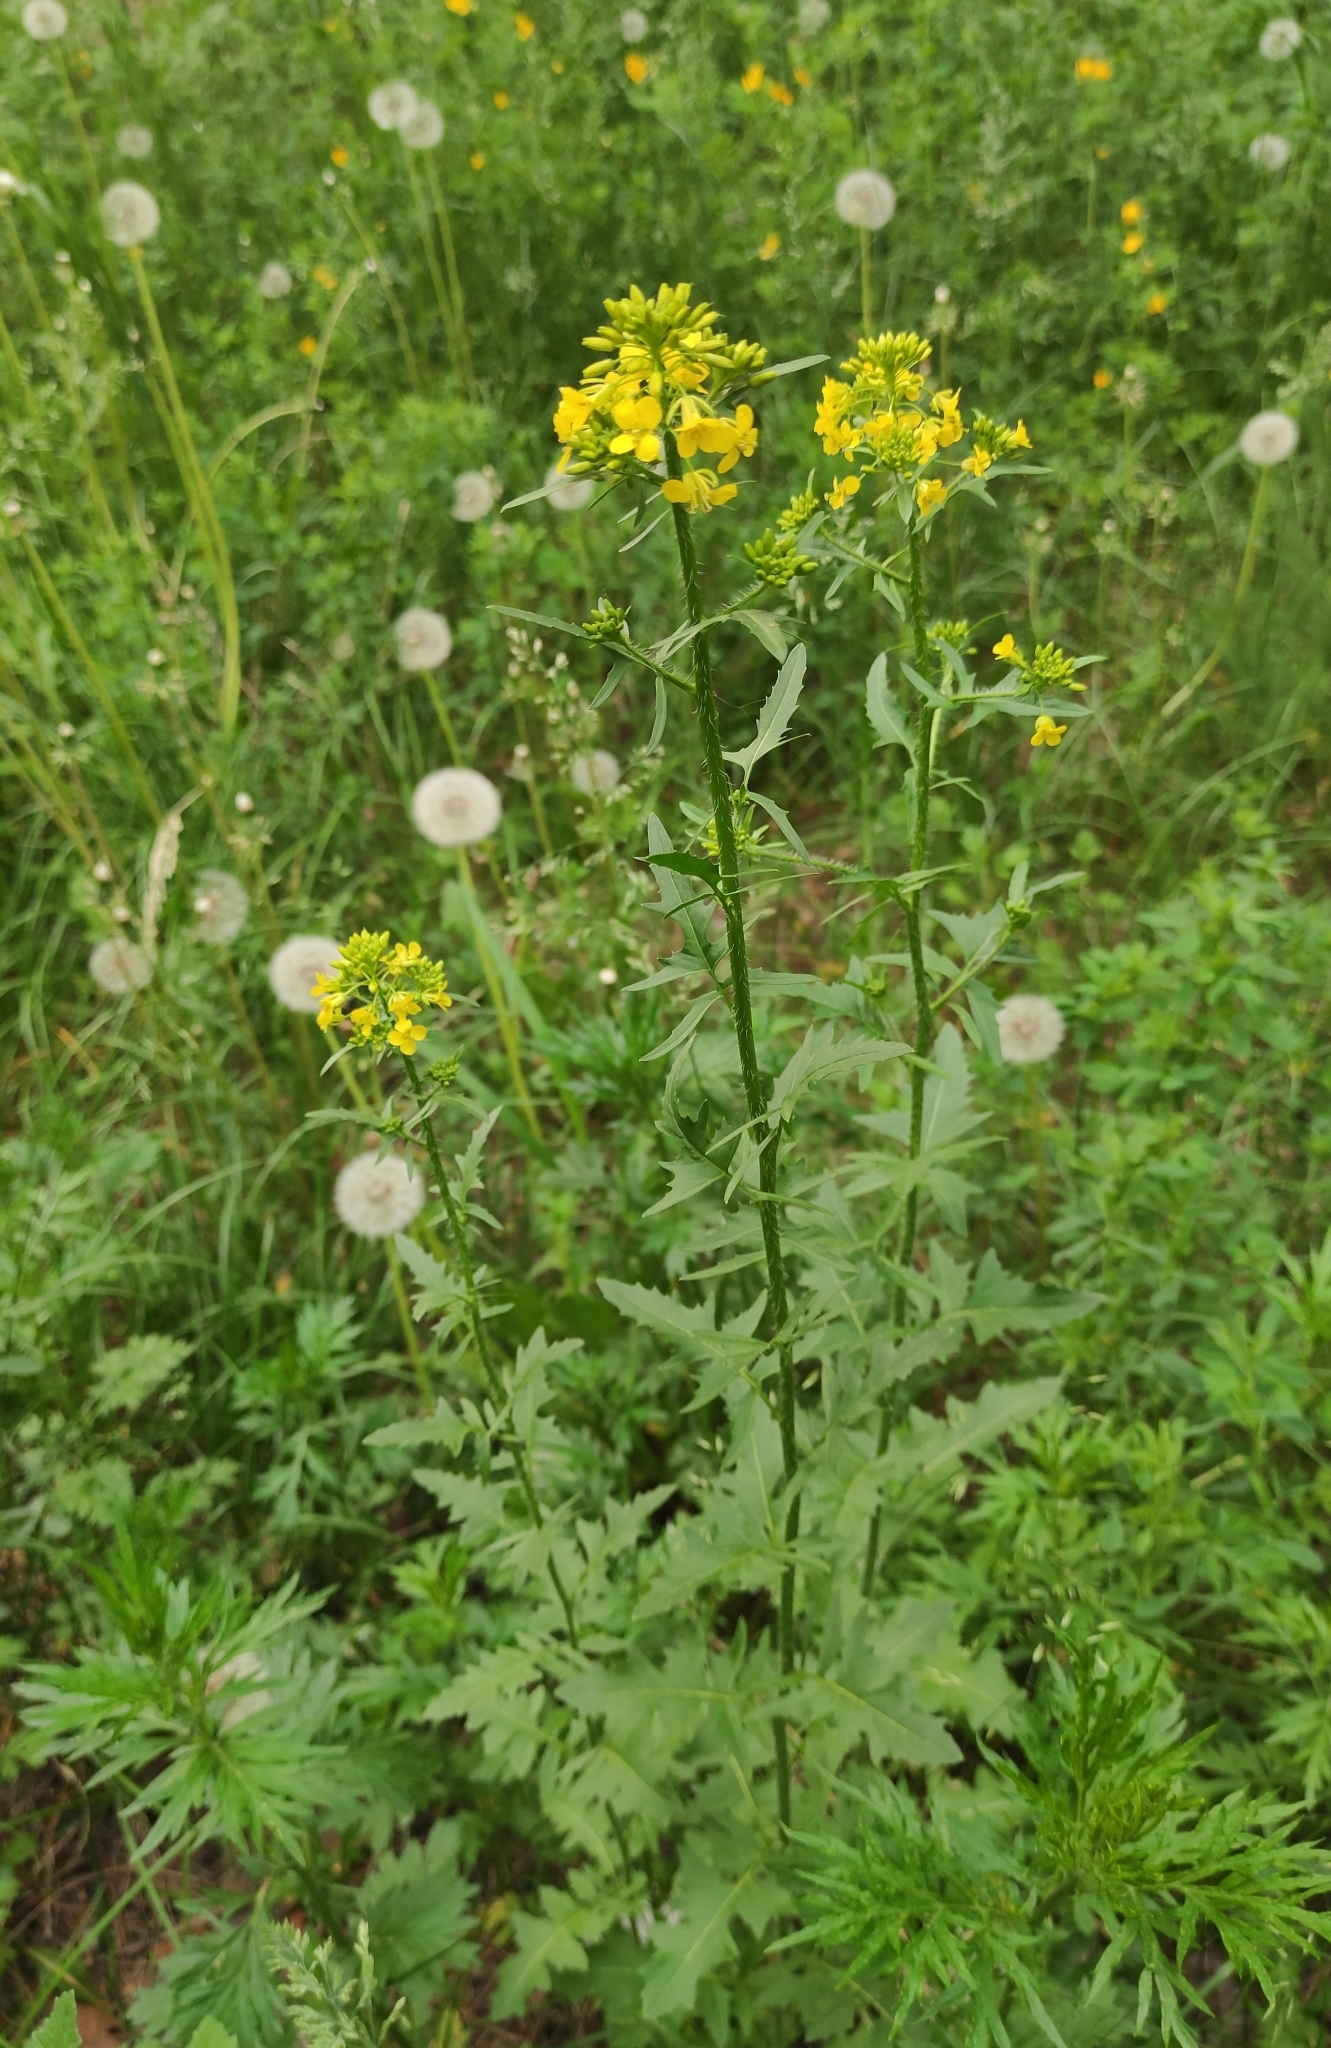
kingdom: Plantae
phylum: Tracheophyta
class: Magnoliopsida
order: Brassicales
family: Brassicaceae
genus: Sisymbrium
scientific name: Sisymbrium loeselii
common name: False london-rocket
